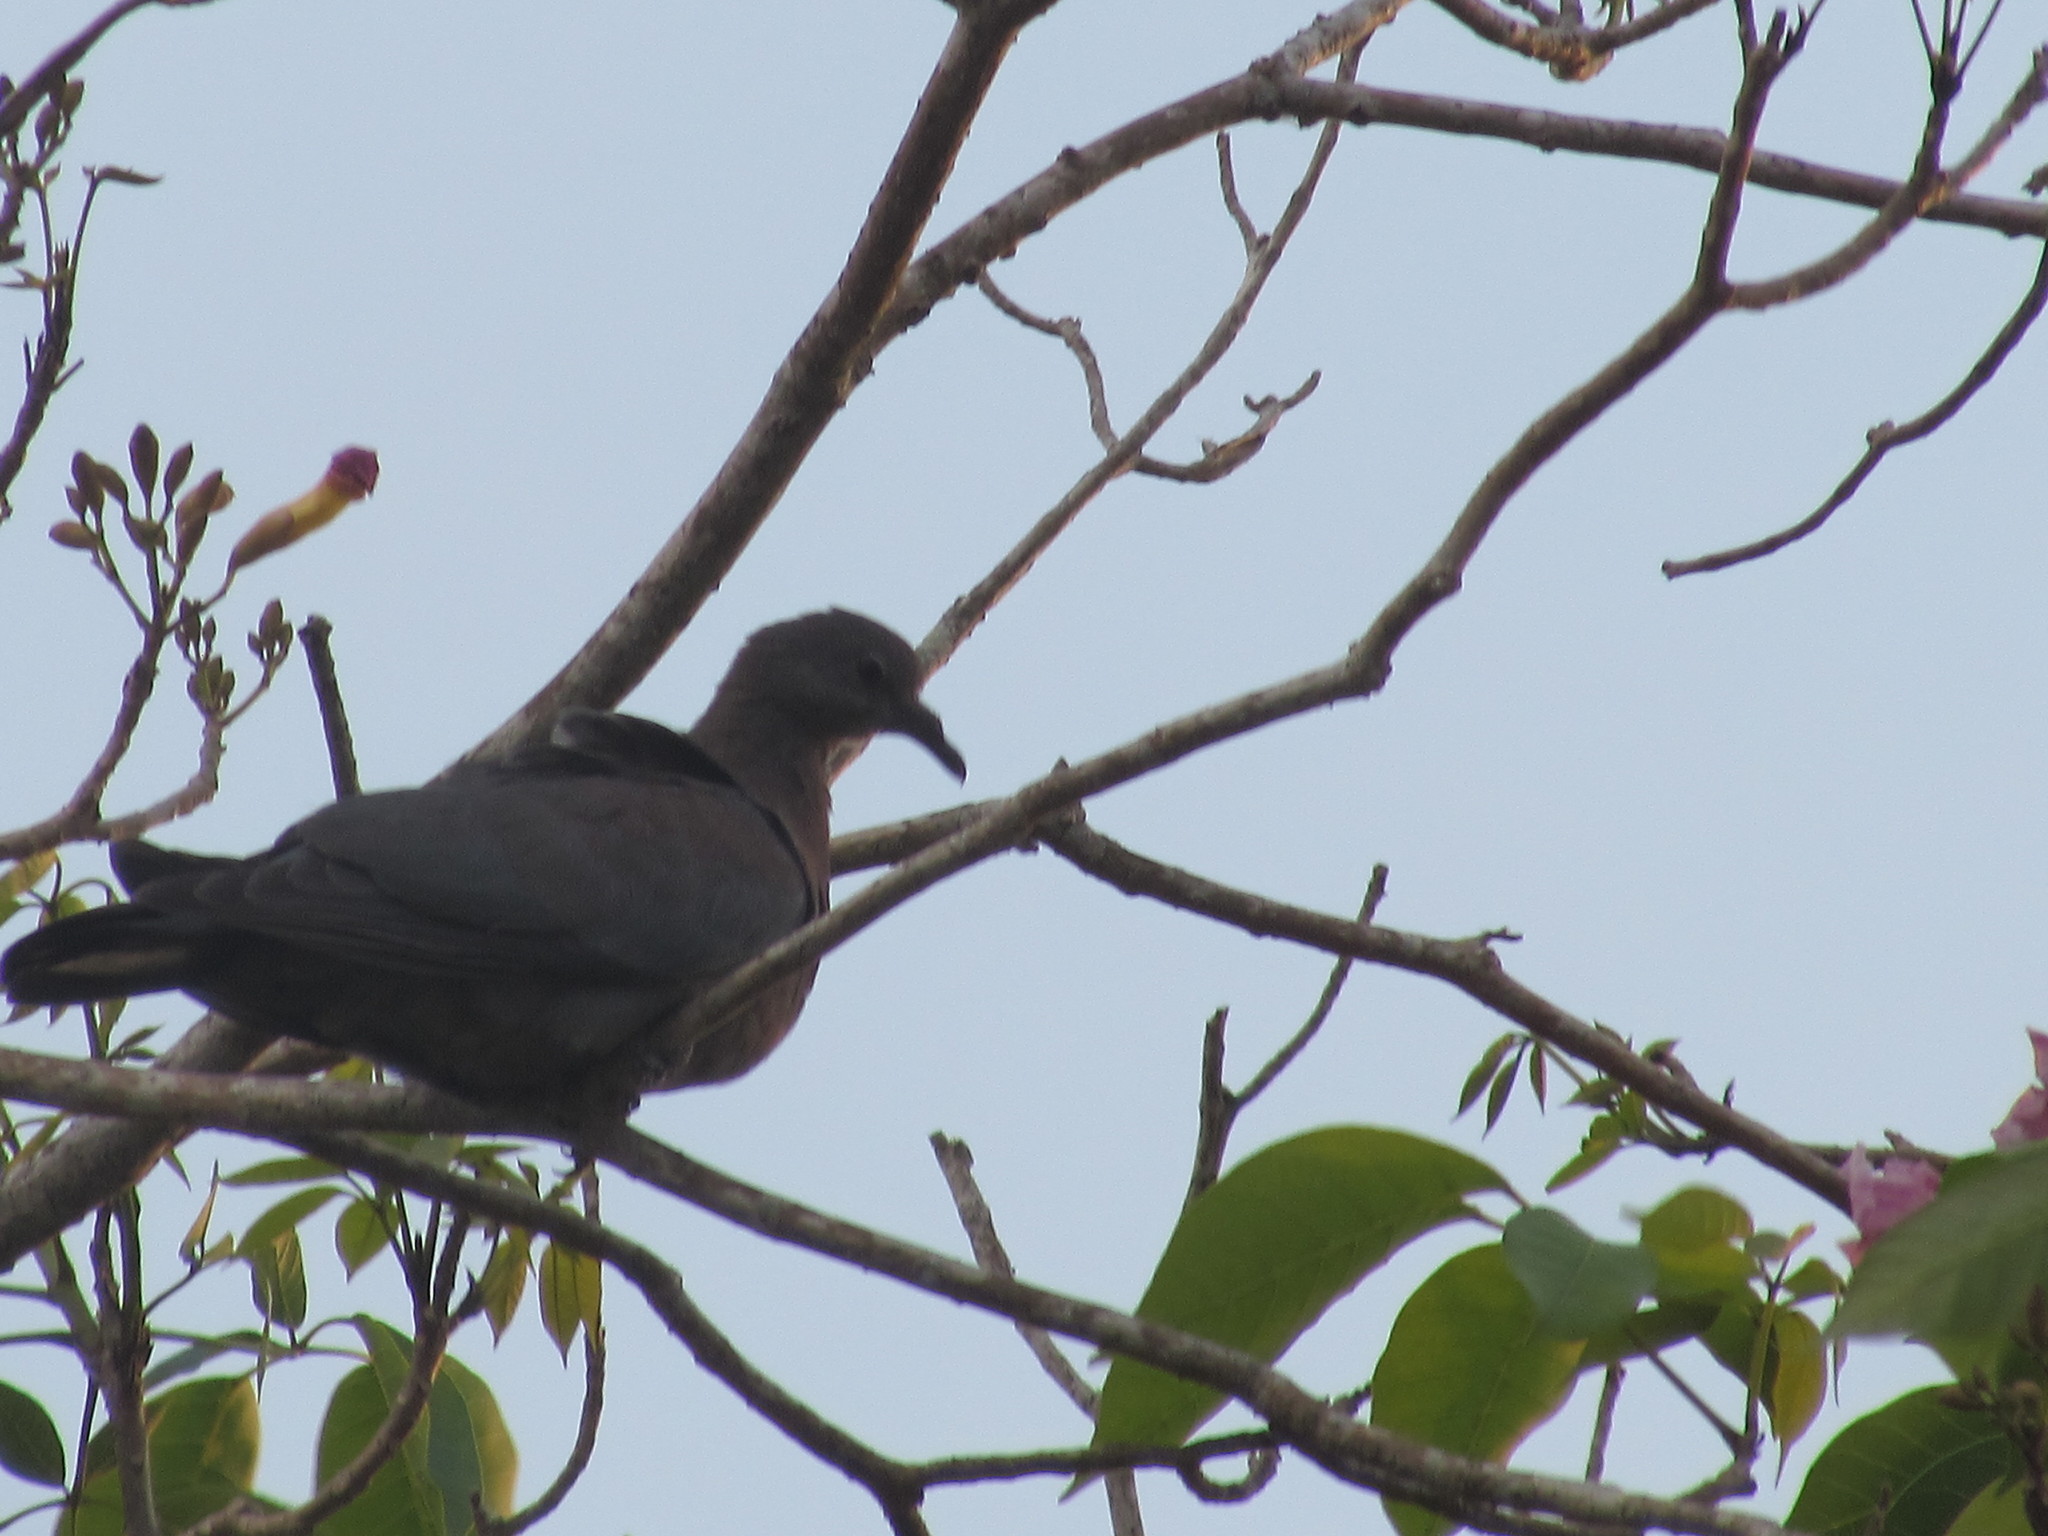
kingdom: Animalia
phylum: Chordata
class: Aves
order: Columbiformes
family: Columbidae
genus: Patagioenas
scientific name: Patagioenas flavirostris
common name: Red-billed pigeon
